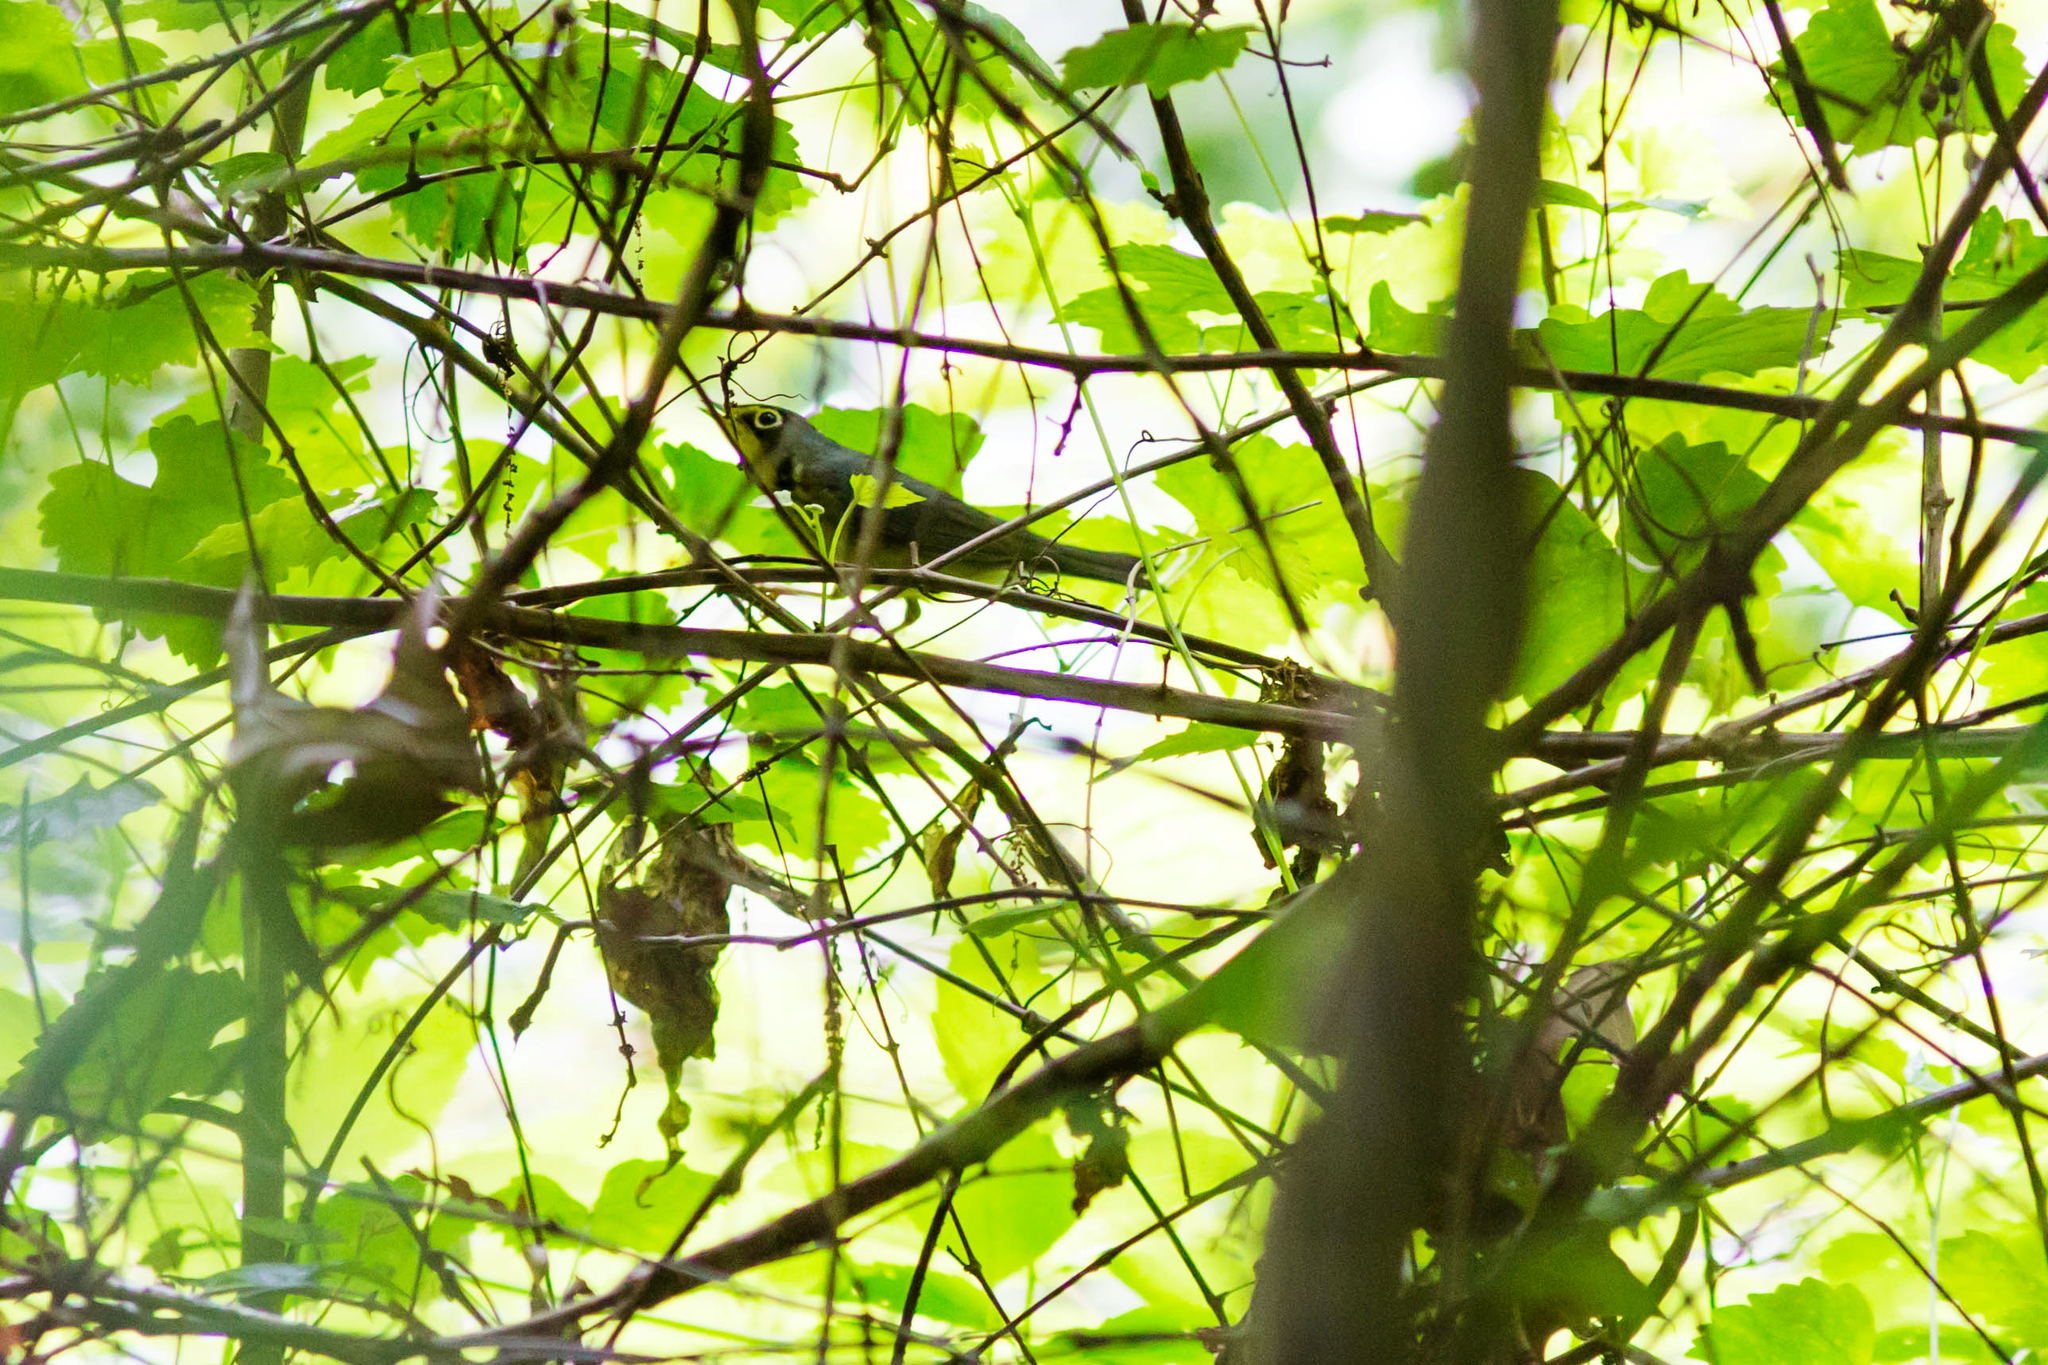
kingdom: Animalia
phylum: Chordata
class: Aves
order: Passeriformes
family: Parulidae
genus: Cardellina
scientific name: Cardellina canadensis
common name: Canada warbler
